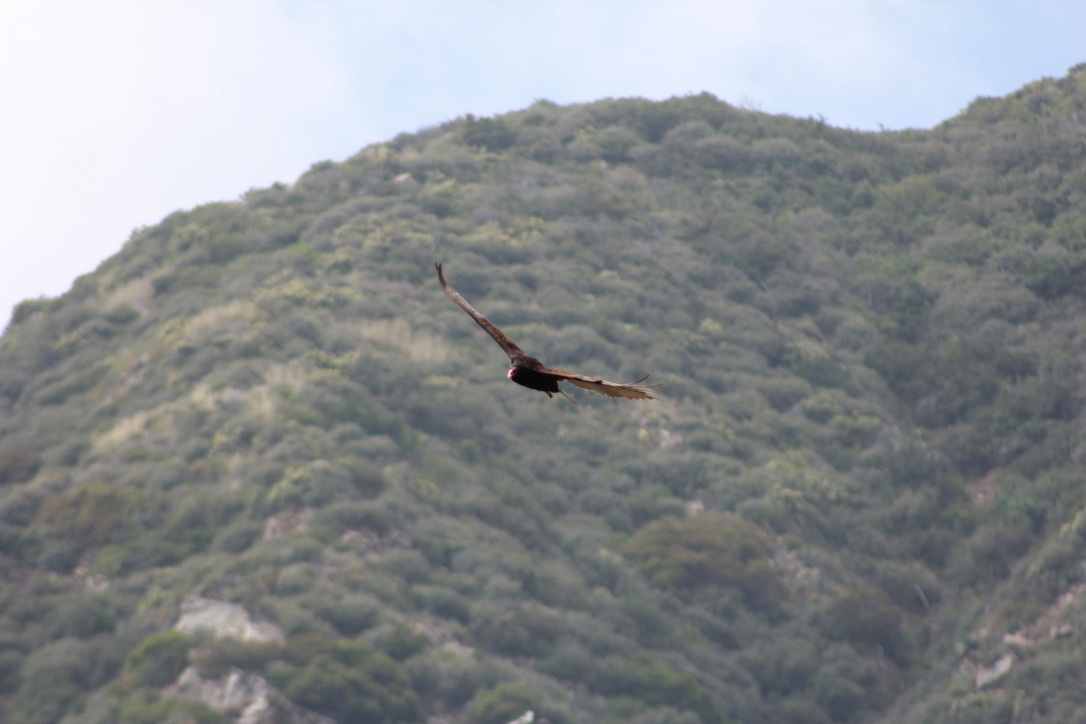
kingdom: Animalia
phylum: Chordata
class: Aves
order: Accipitriformes
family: Cathartidae
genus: Cathartes
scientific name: Cathartes aura
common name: Turkey vulture
